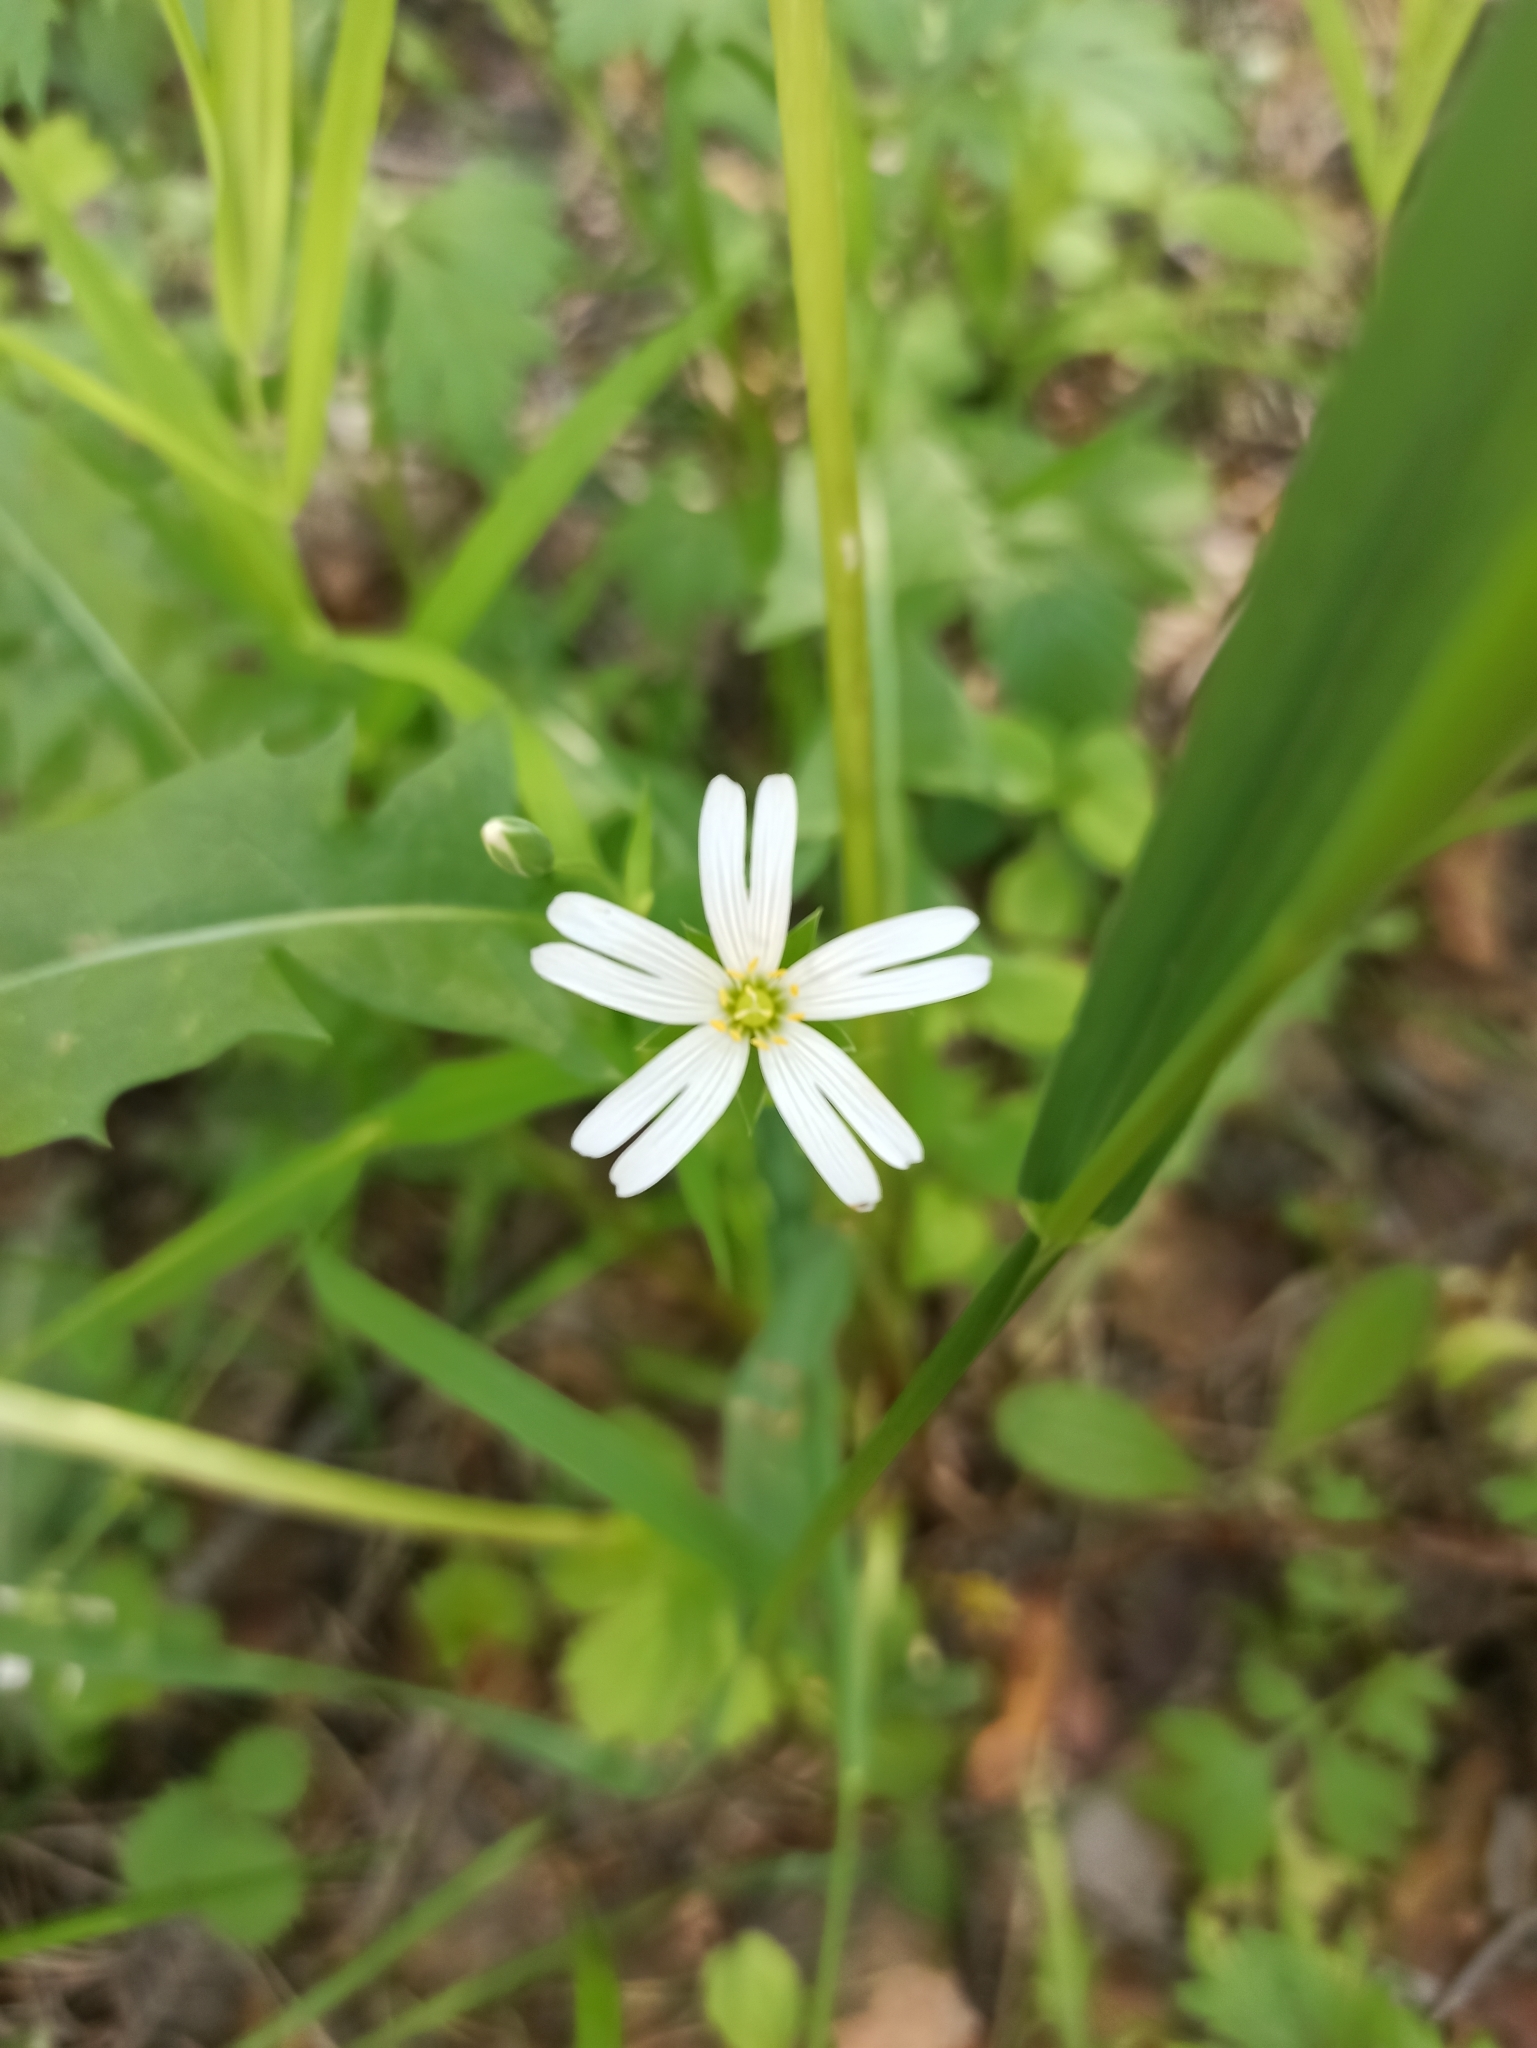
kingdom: Plantae
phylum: Tracheophyta
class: Magnoliopsida
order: Caryophyllales
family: Caryophyllaceae
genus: Rabelera
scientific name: Rabelera holostea
